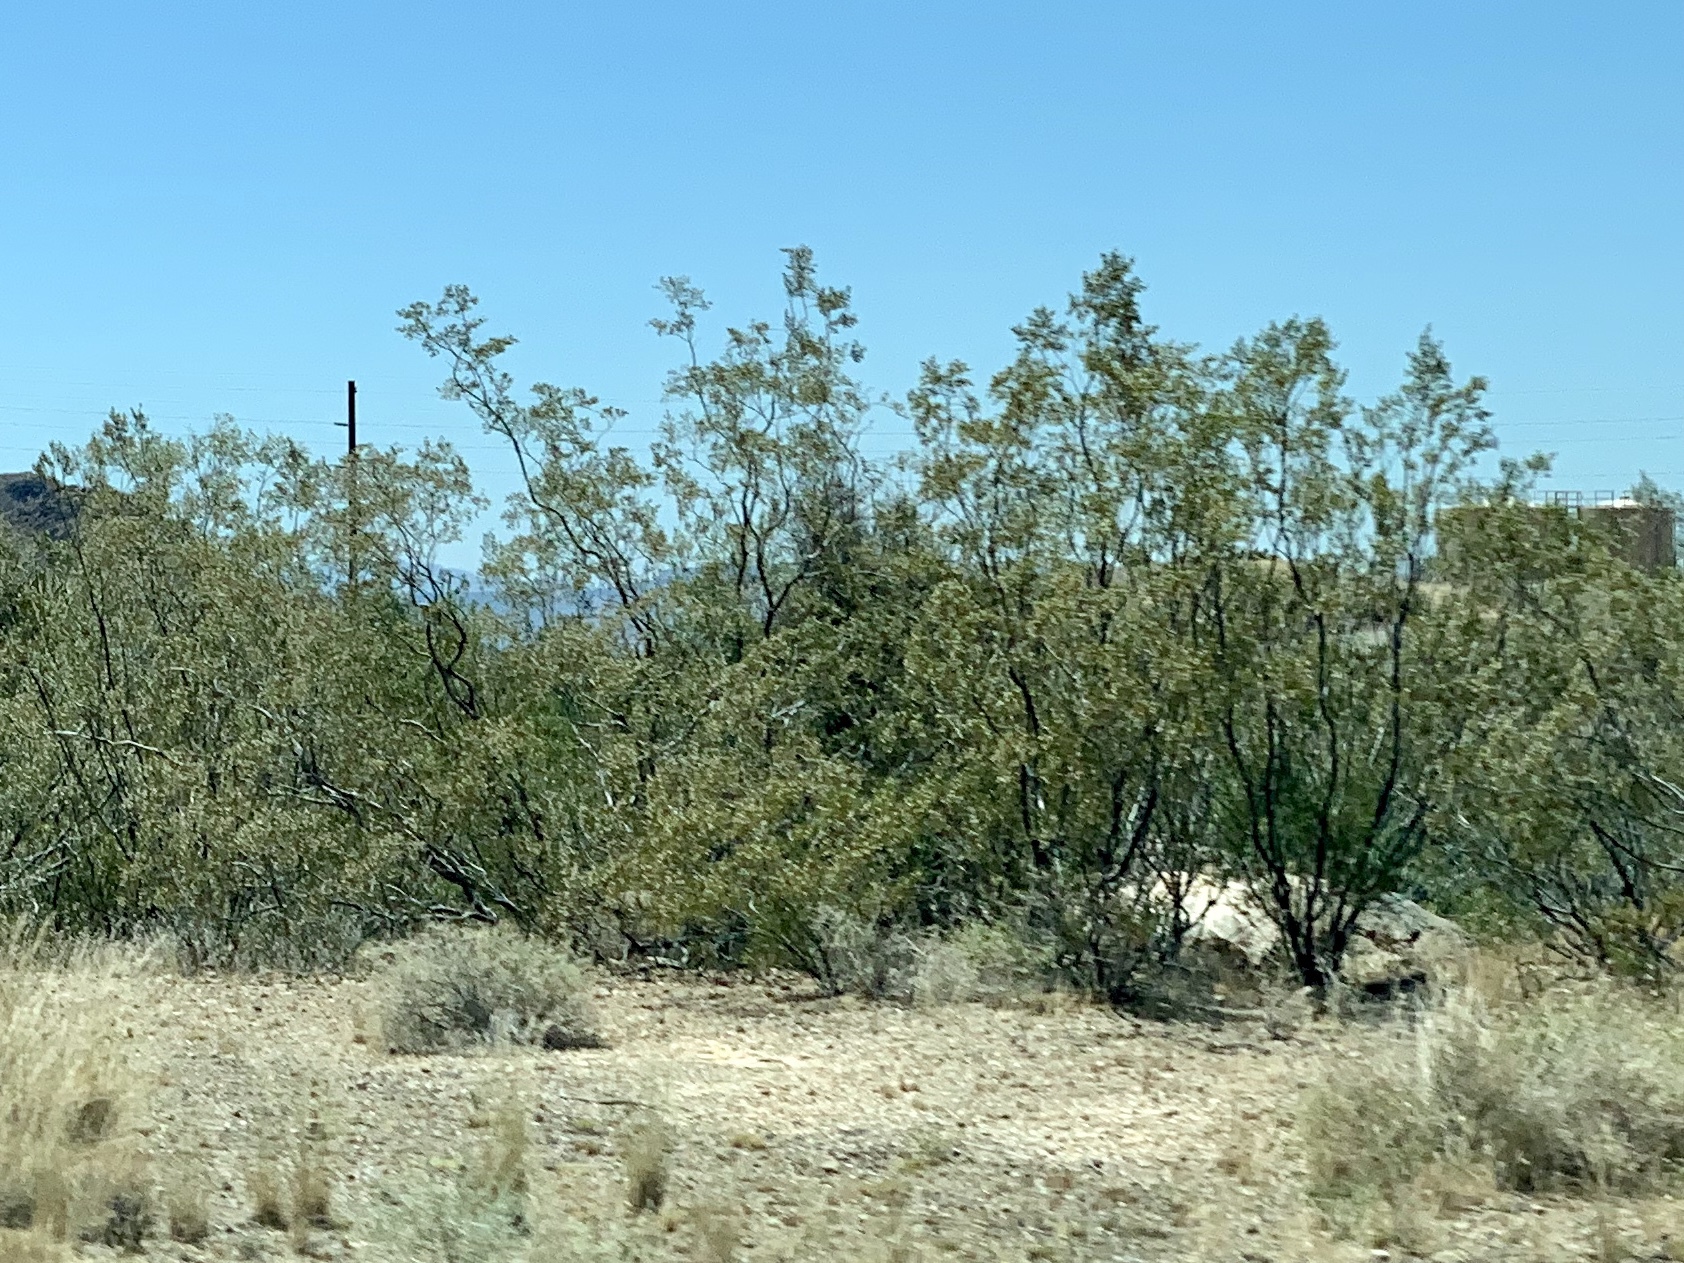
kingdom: Plantae
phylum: Tracheophyta
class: Magnoliopsida
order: Zygophyllales
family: Zygophyllaceae
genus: Larrea
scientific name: Larrea tridentata
